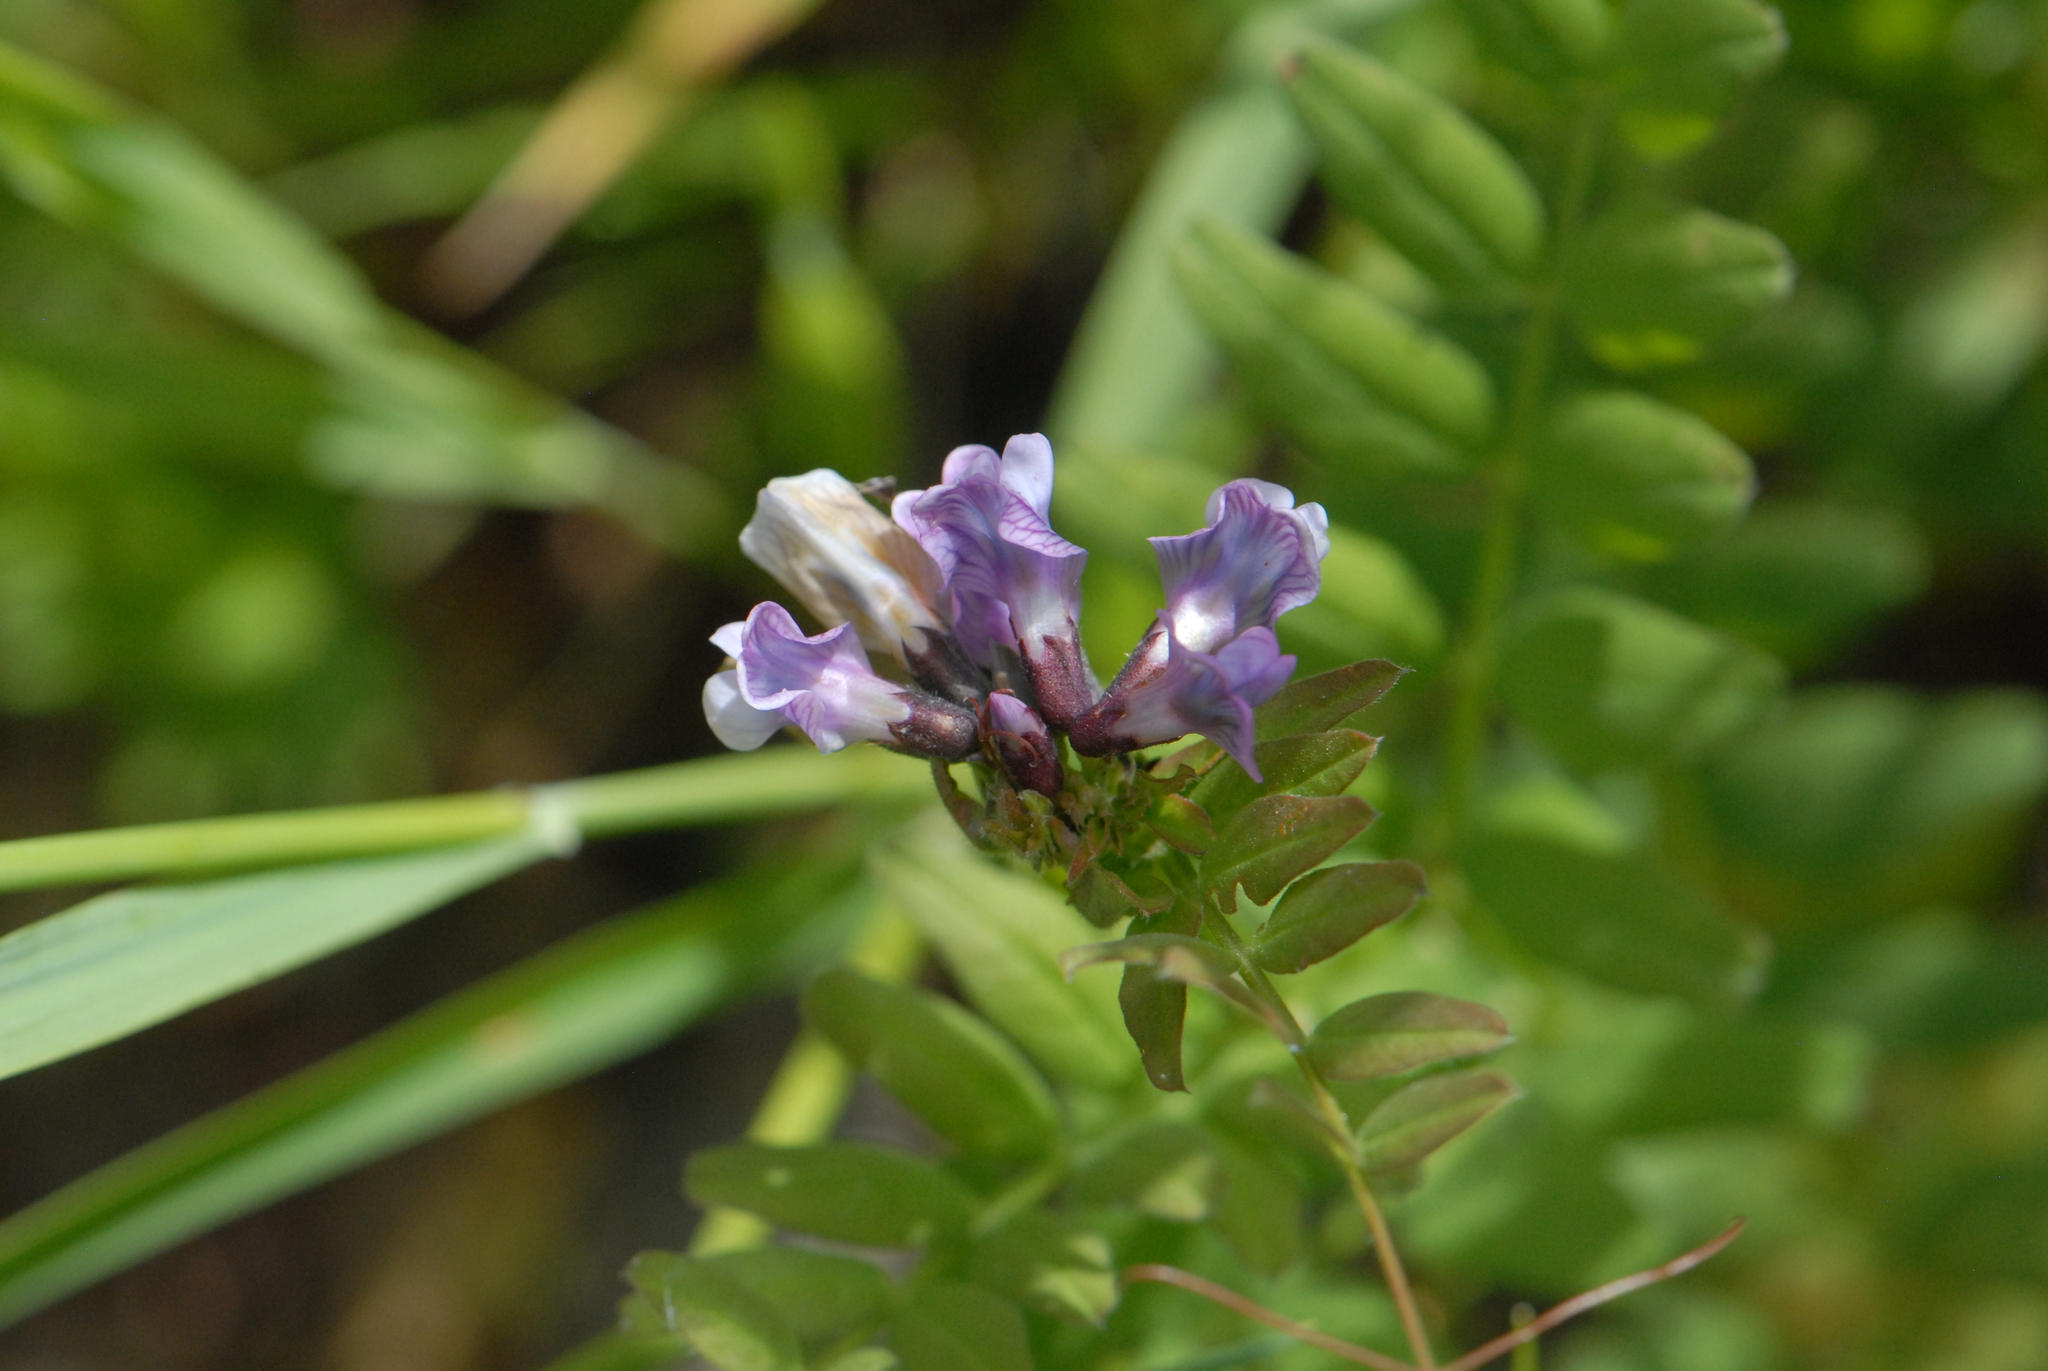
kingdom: Plantae
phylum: Tracheophyta
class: Magnoliopsida
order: Fabales
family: Fabaceae
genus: Vicia
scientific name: Vicia sepium
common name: Bush vetch
